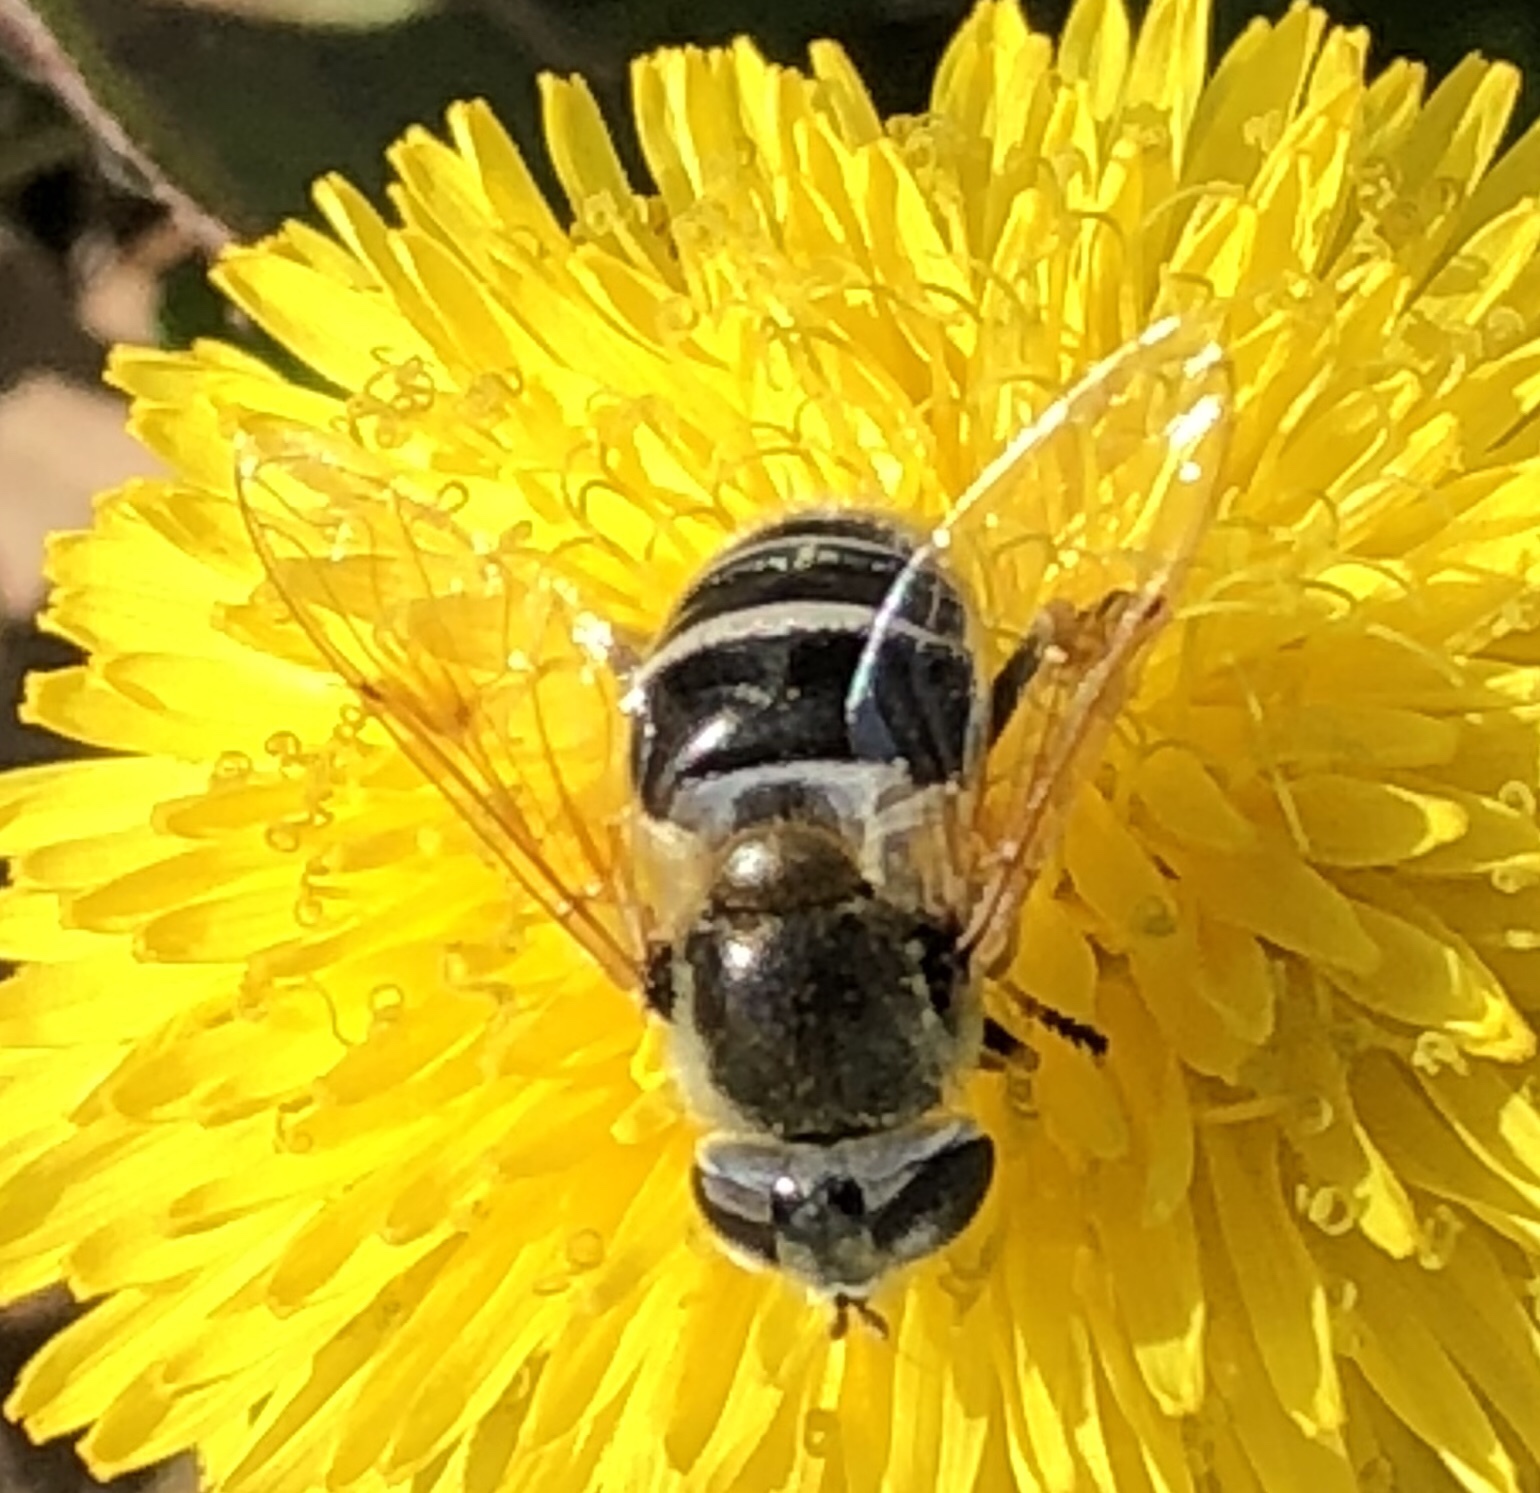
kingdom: Animalia
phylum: Arthropoda
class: Insecta
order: Diptera
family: Syrphidae
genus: Eristalis
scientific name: Eristalis stipator
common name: Yellow-shouldered drone fly
